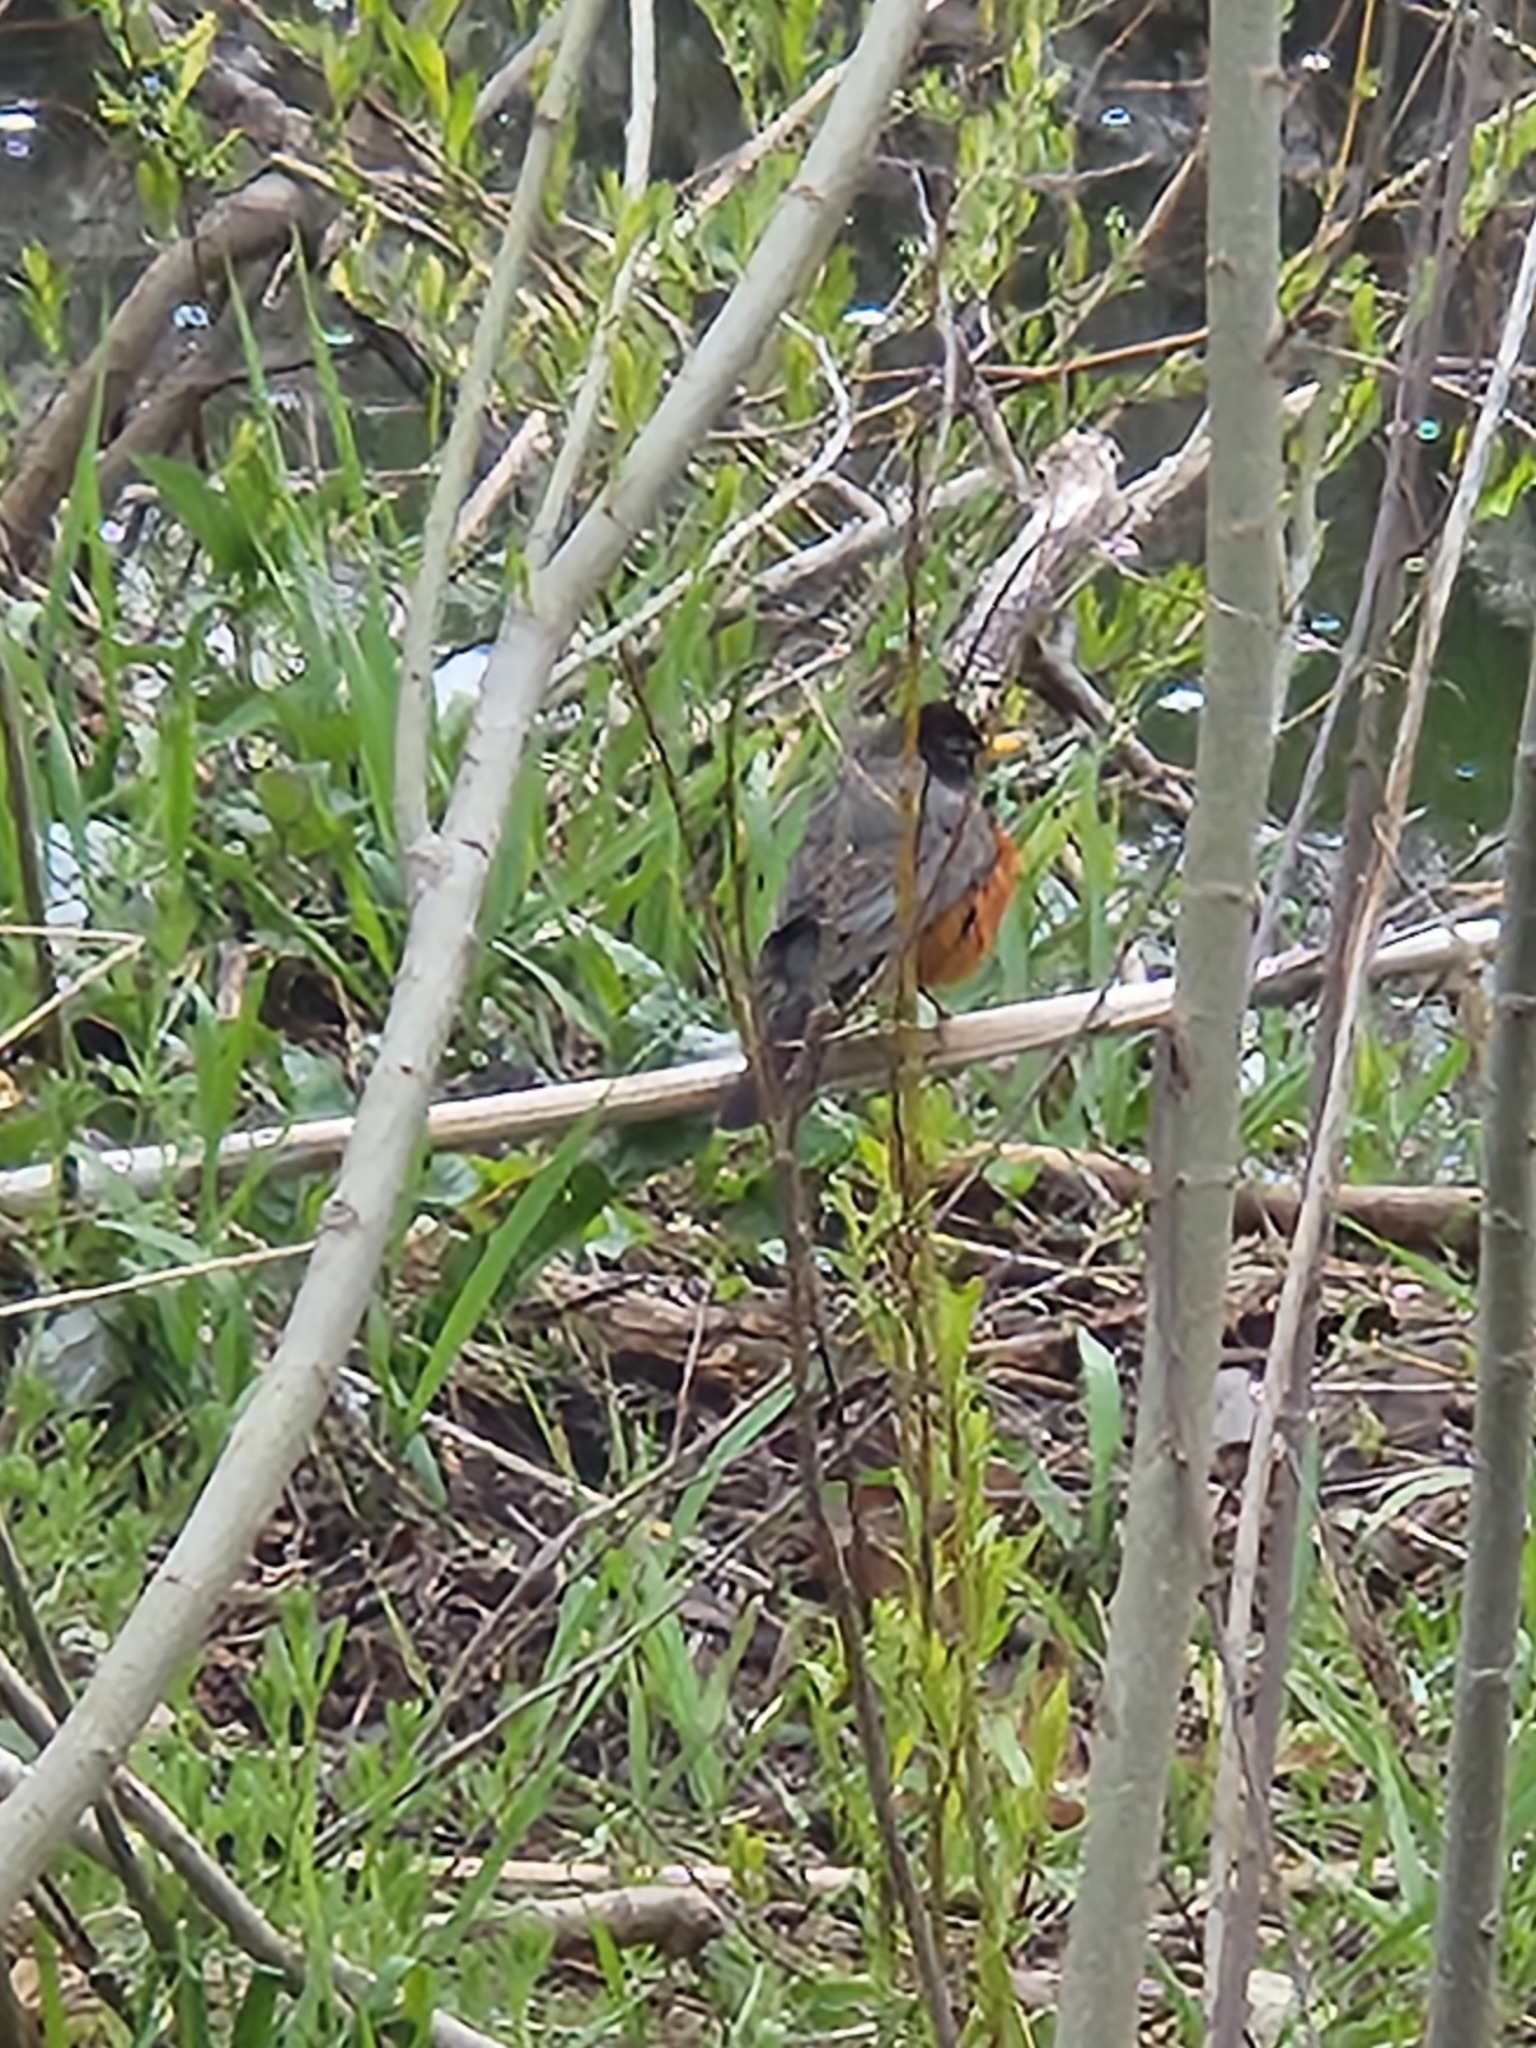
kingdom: Animalia
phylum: Chordata
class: Aves
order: Passeriformes
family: Turdidae
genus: Turdus
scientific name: Turdus migratorius
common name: American robin
